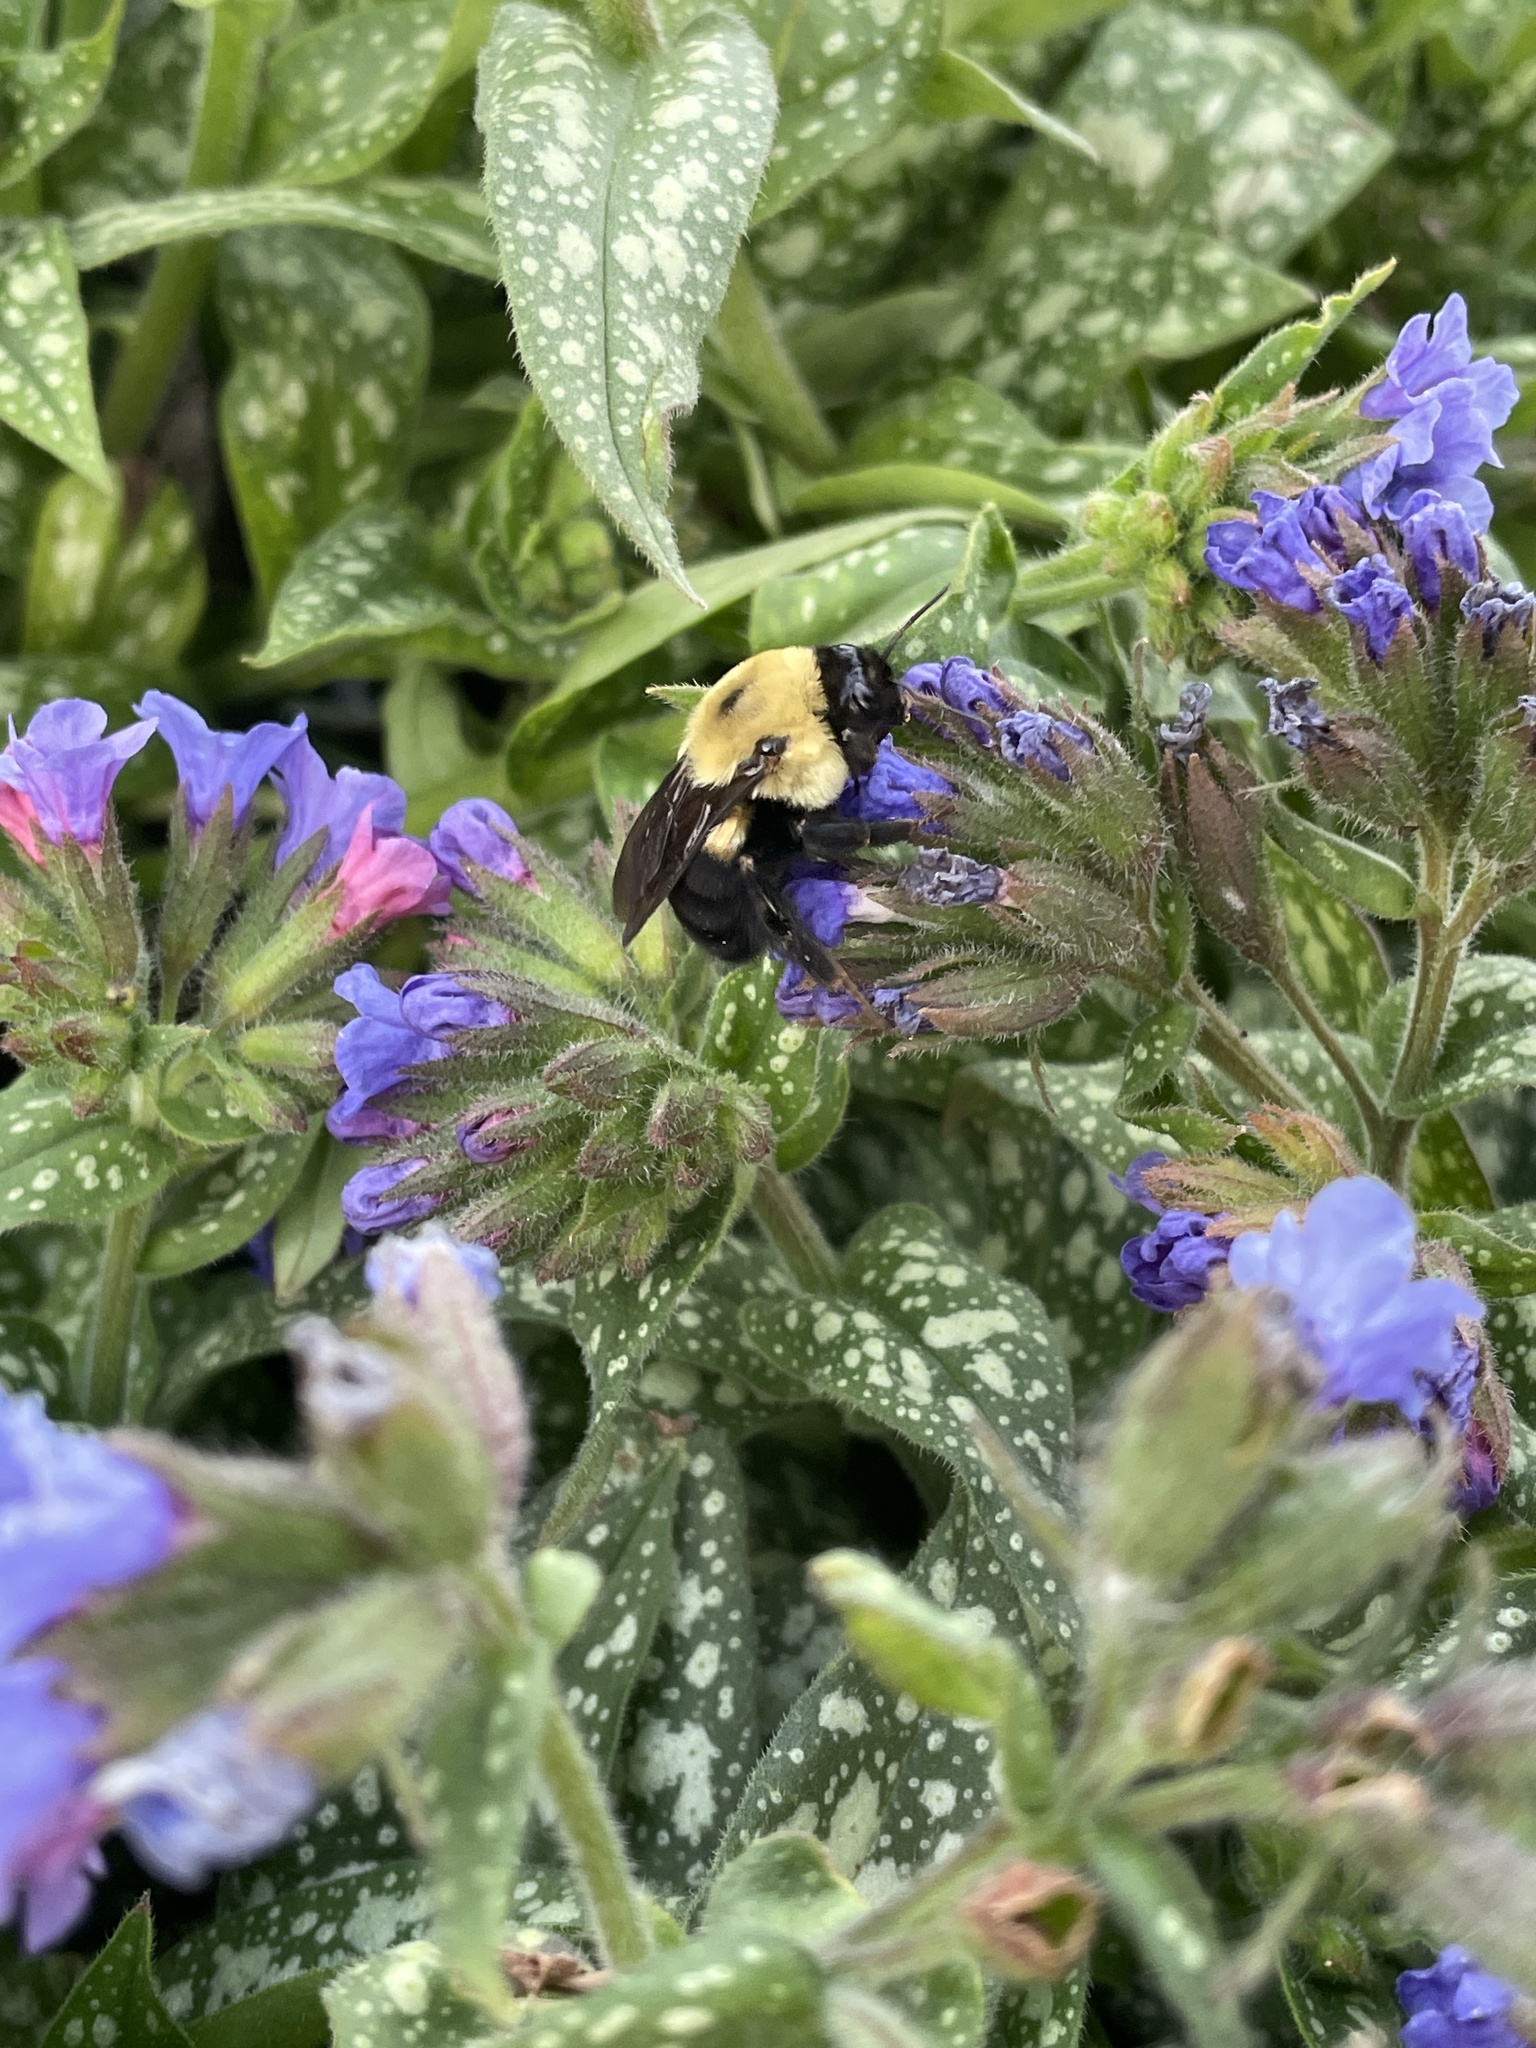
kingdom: Animalia
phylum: Arthropoda
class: Insecta
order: Hymenoptera
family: Apidae
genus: Bombus
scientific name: Bombus griseocollis
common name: Brown-belted bumble bee
